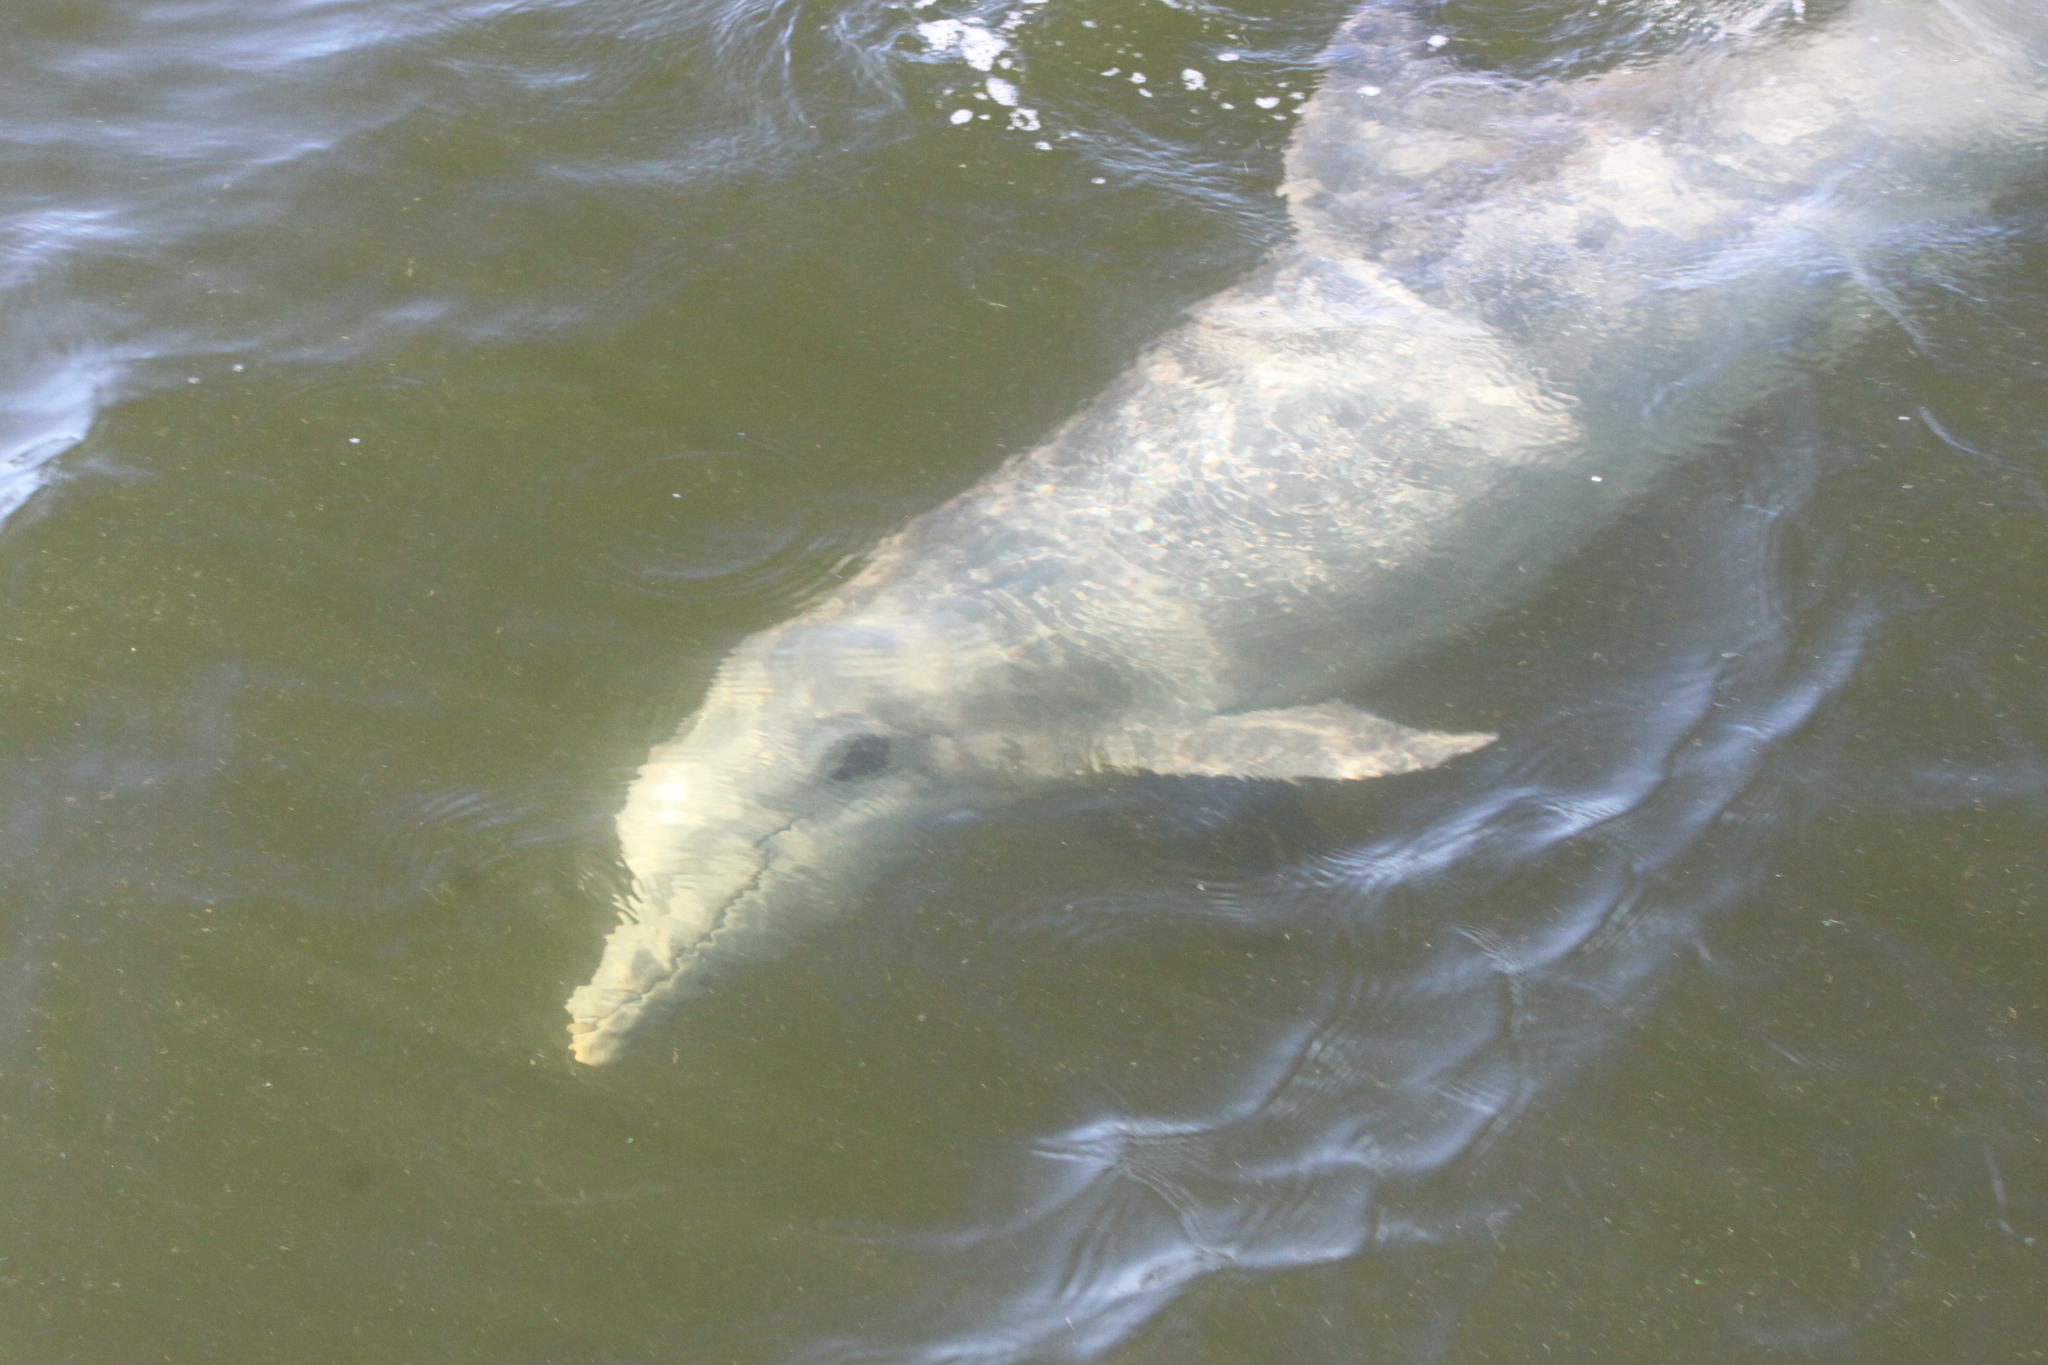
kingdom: Animalia
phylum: Chordata
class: Mammalia
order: Cetacea
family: Delphinidae
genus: Tursiops
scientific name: Tursiops truncatus
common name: Bottlenose dolphin
